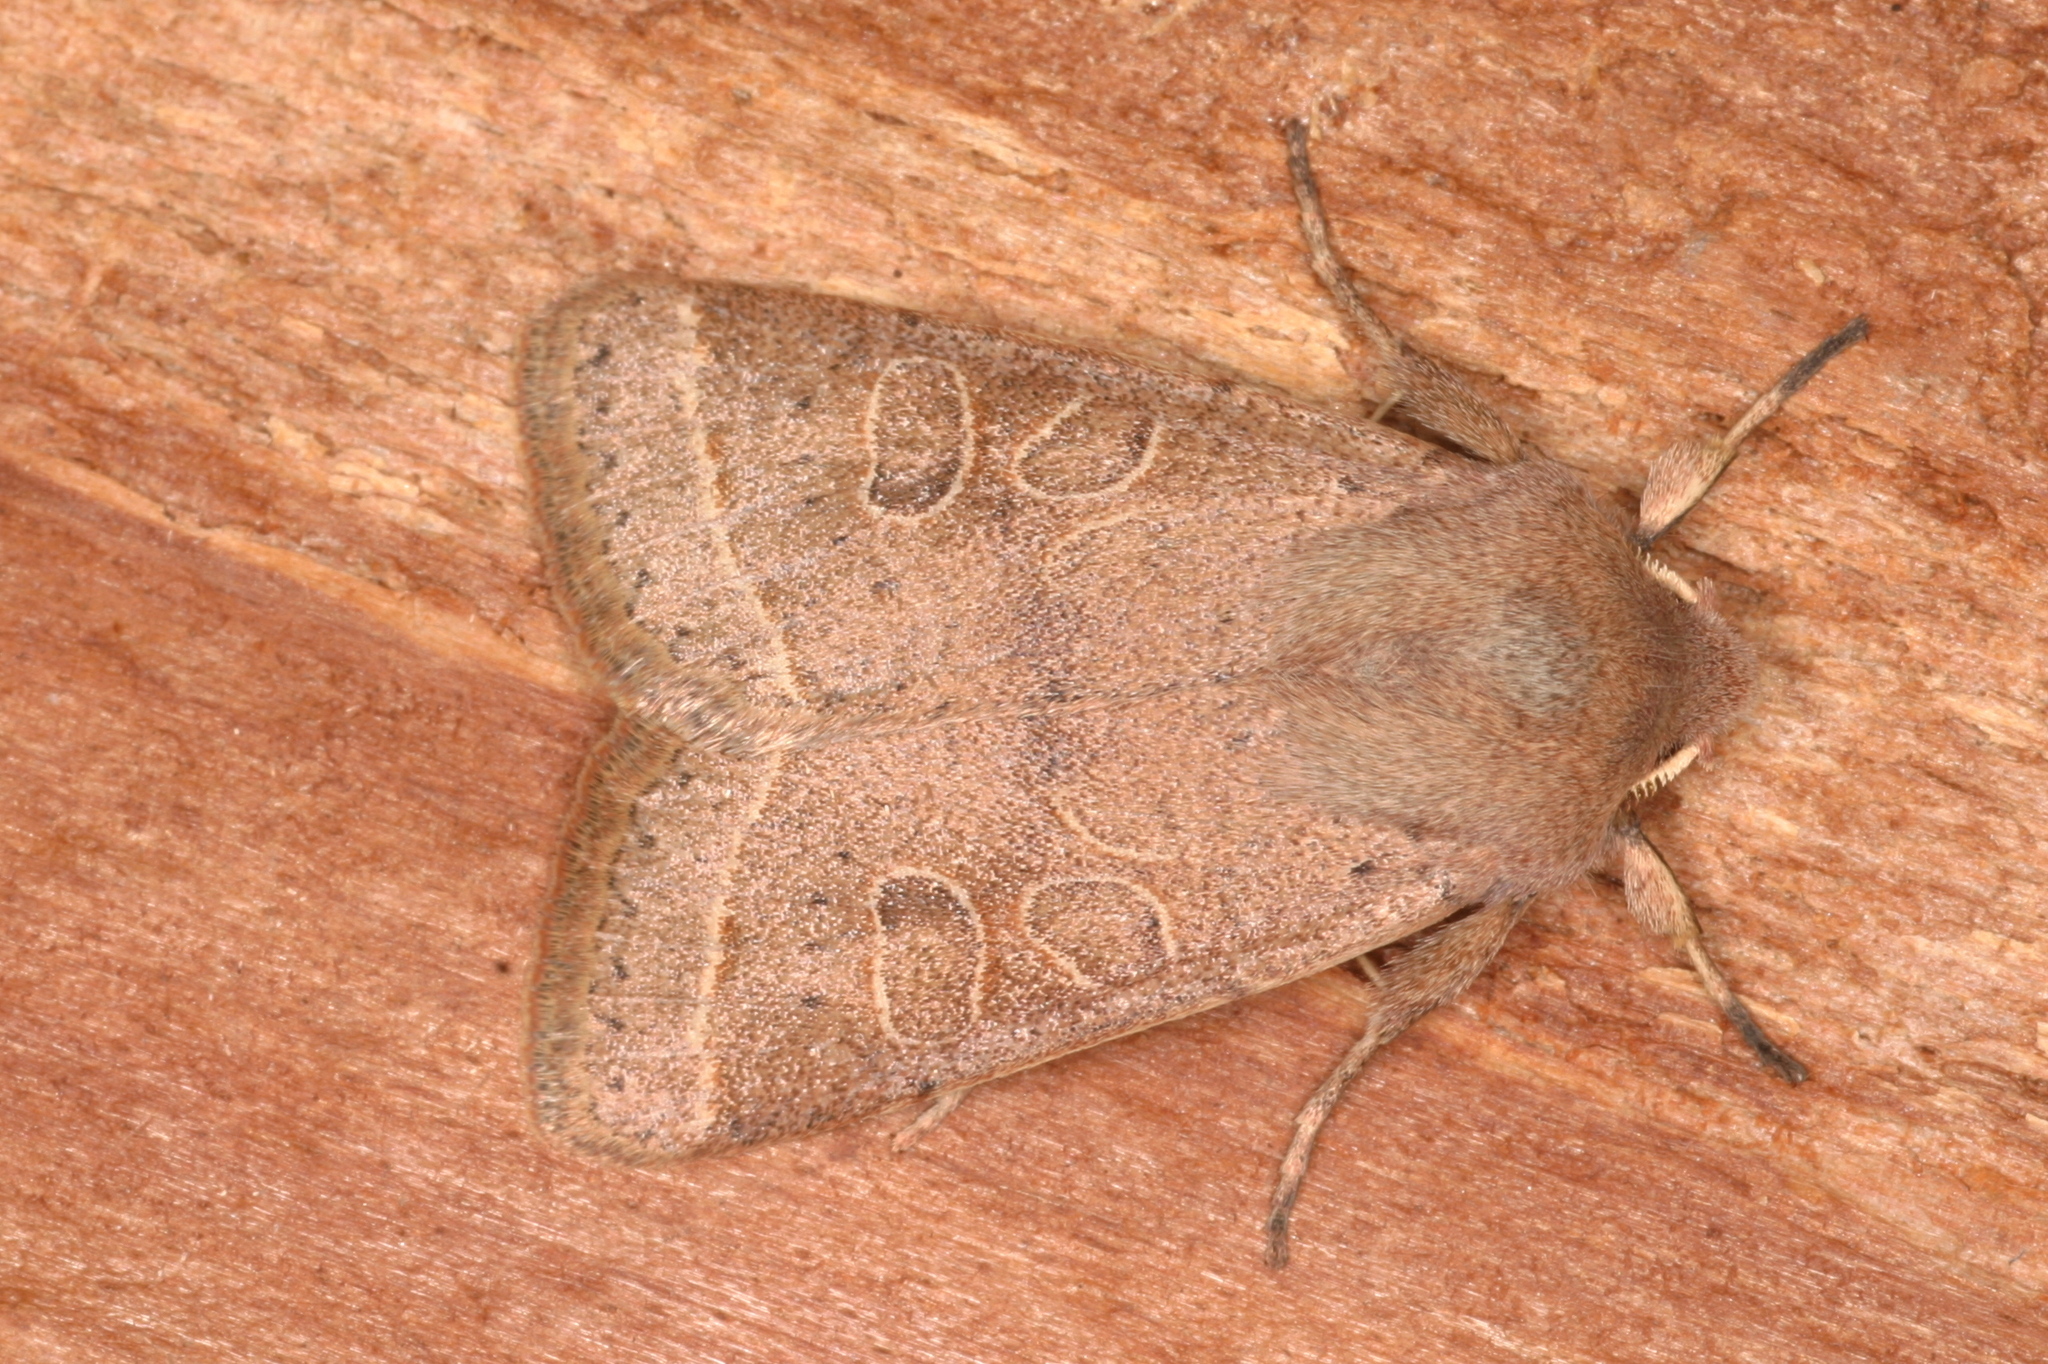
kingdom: Animalia
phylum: Arthropoda
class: Insecta
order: Lepidoptera
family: Noctuidae
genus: Orthosia
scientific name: Orthosia cerasi
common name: Common quaker
